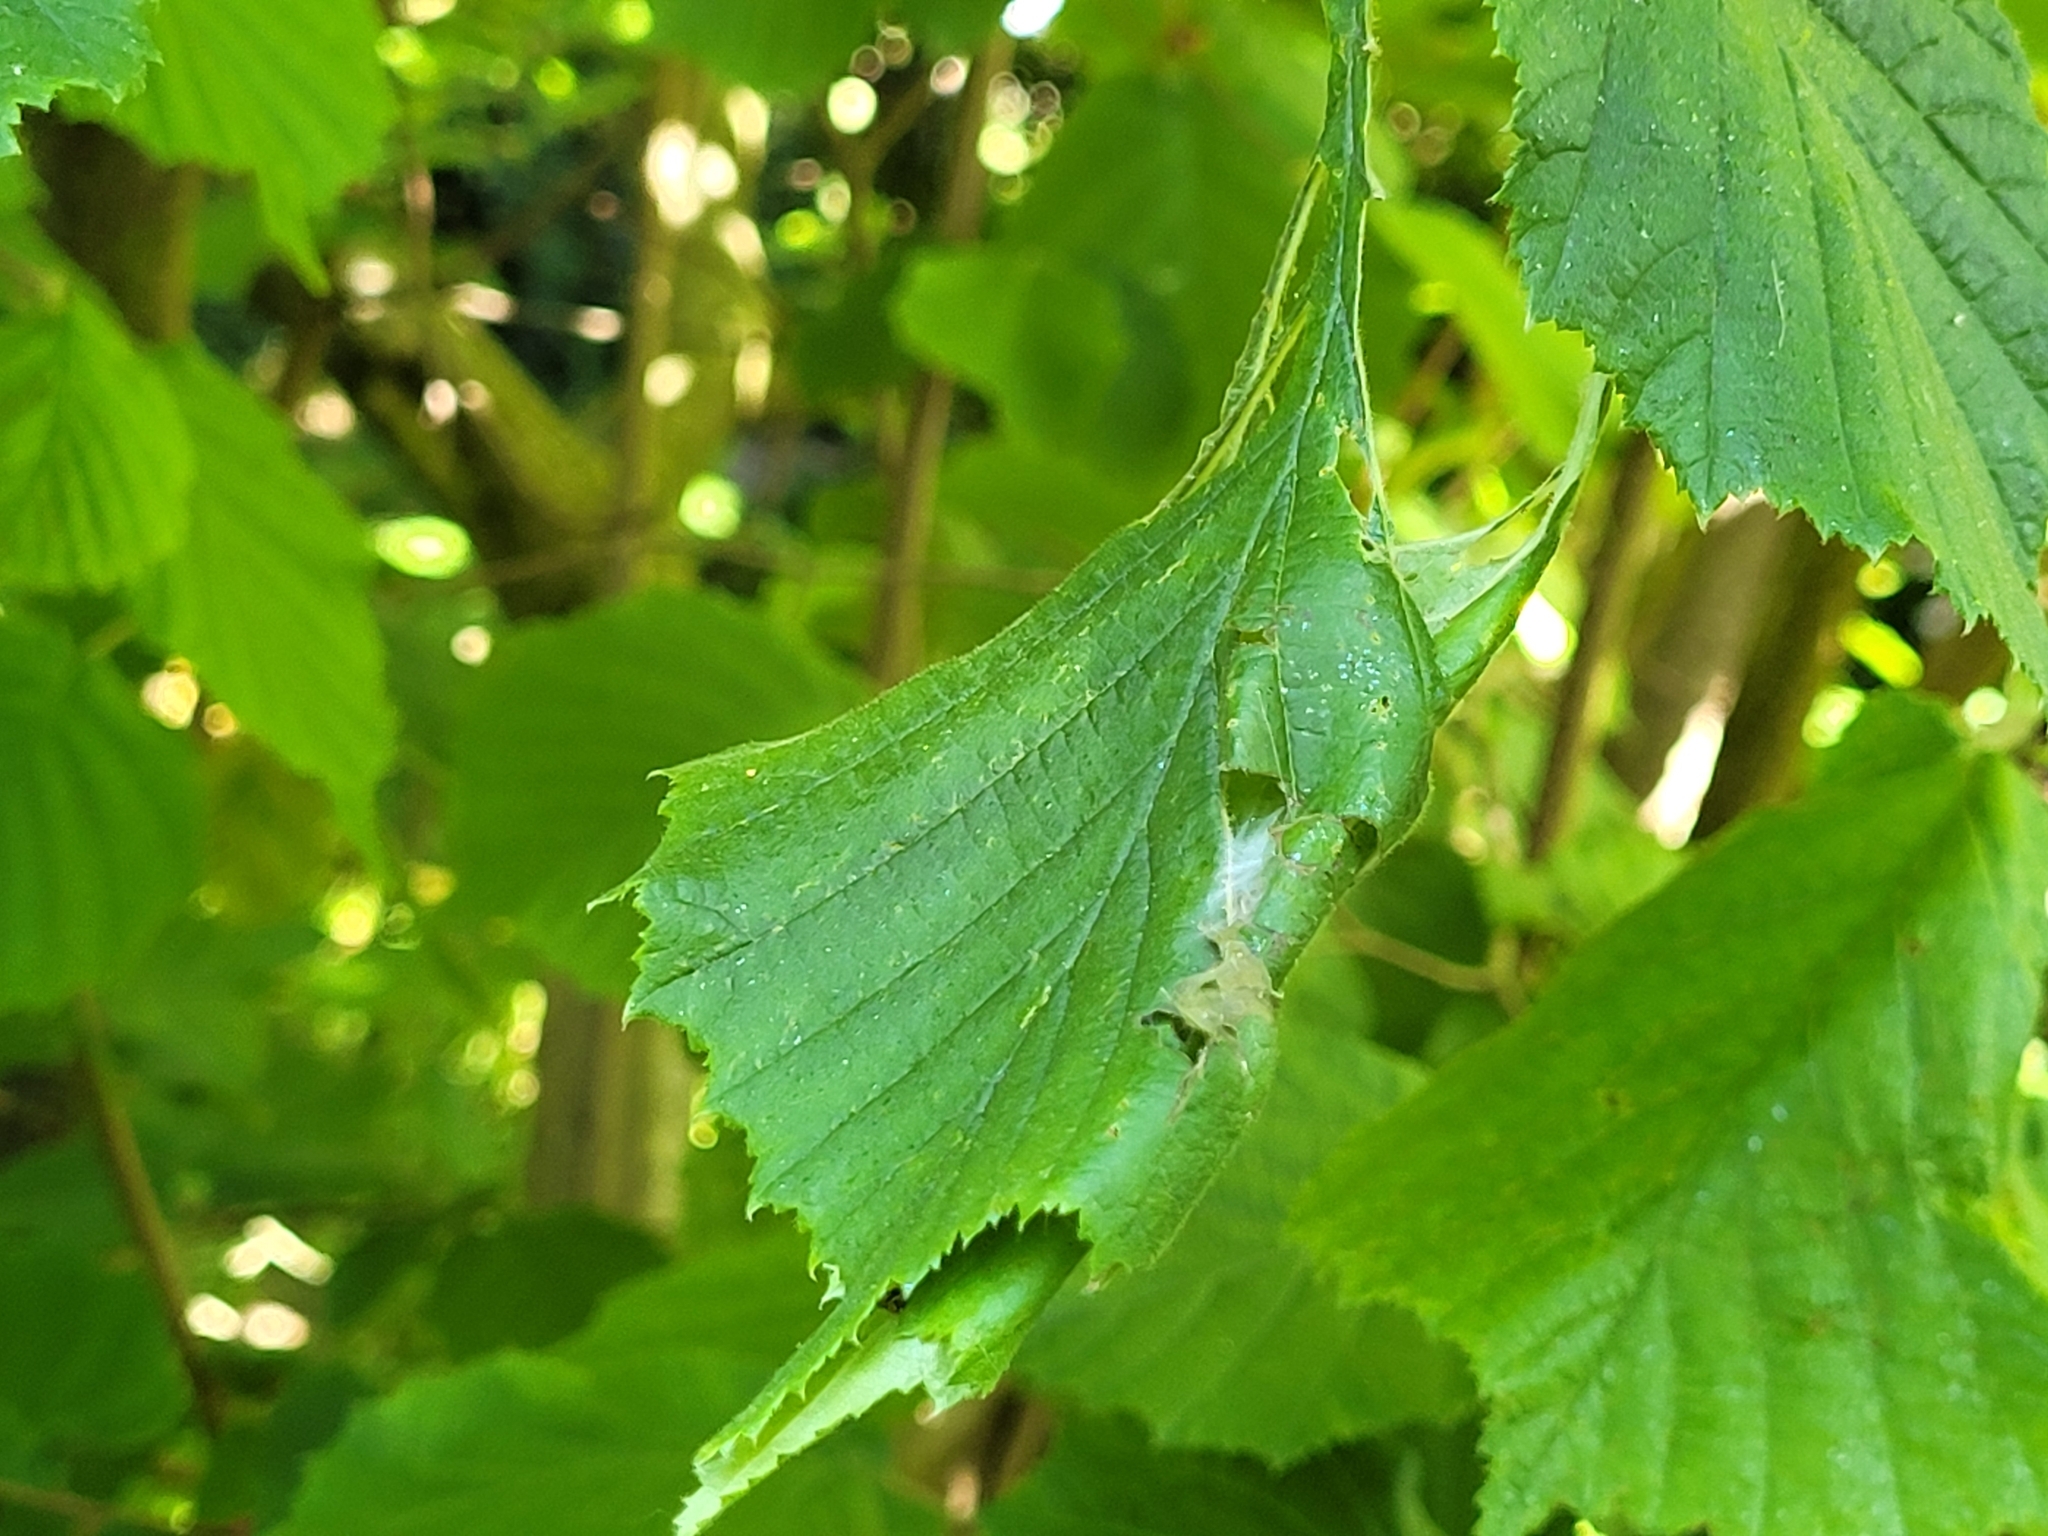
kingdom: Animalia
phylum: Arthropoda
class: Insecta
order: Lepidoptera
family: Lypusidae
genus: Diurnea
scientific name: Diurnea fagella
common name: March tubic
